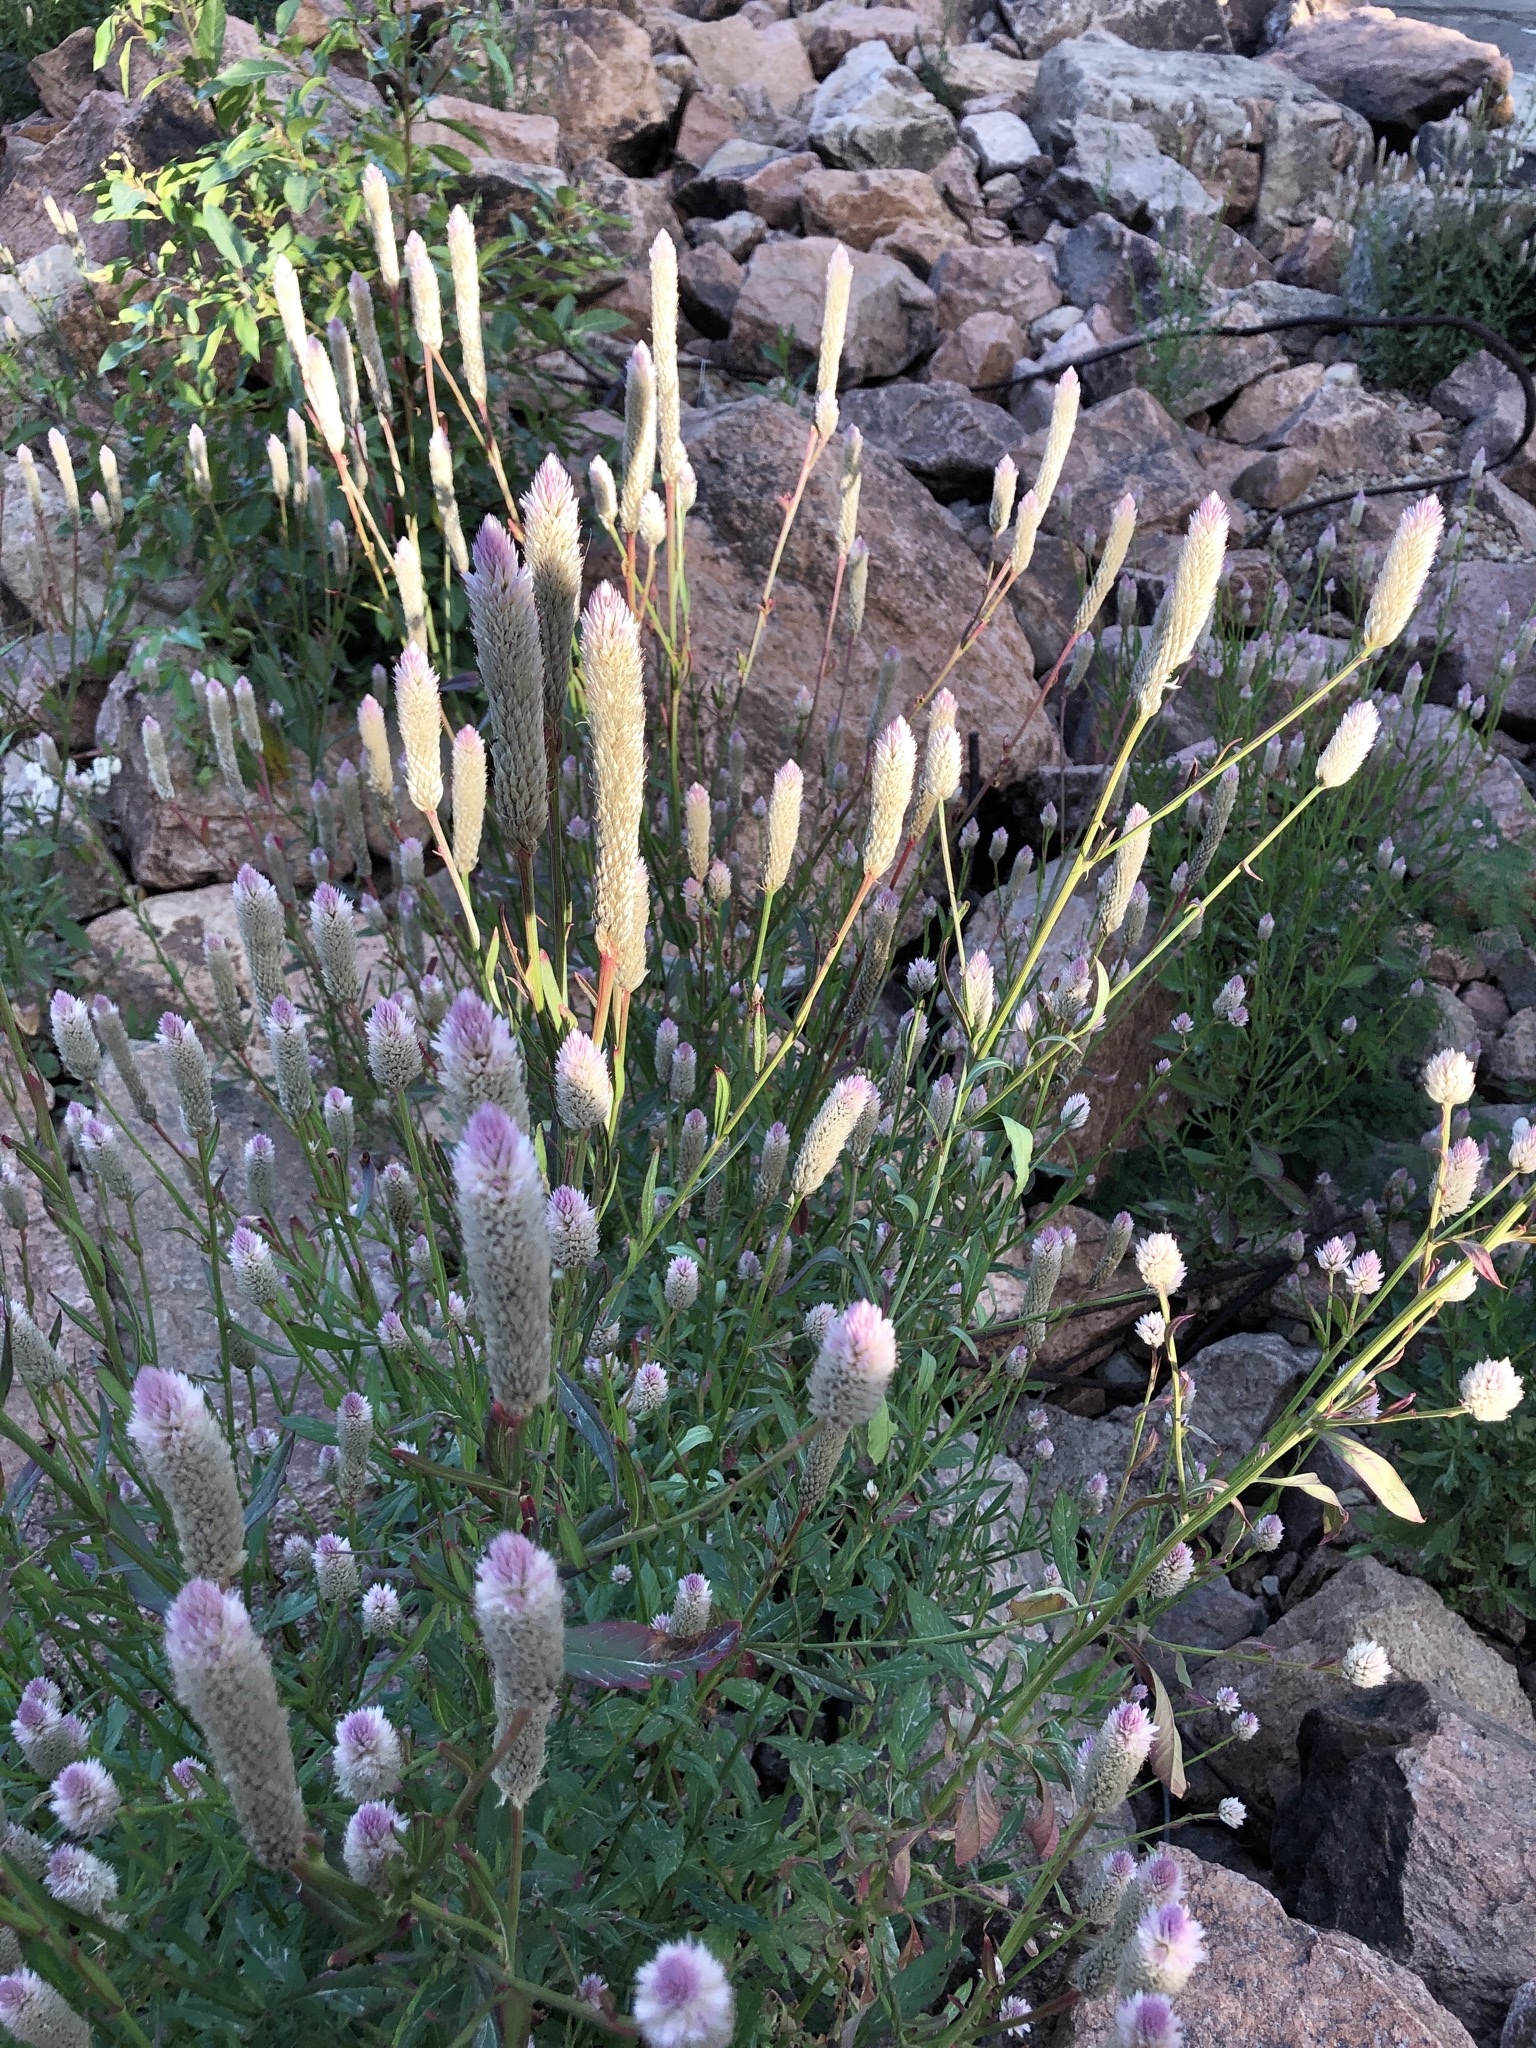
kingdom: Plantae
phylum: Tracheophyta
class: Magnoliopsida
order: Caryophyllales
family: Amaranthaceae
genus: Celosia
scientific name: Celosia argentea
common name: Feather cockscomb
